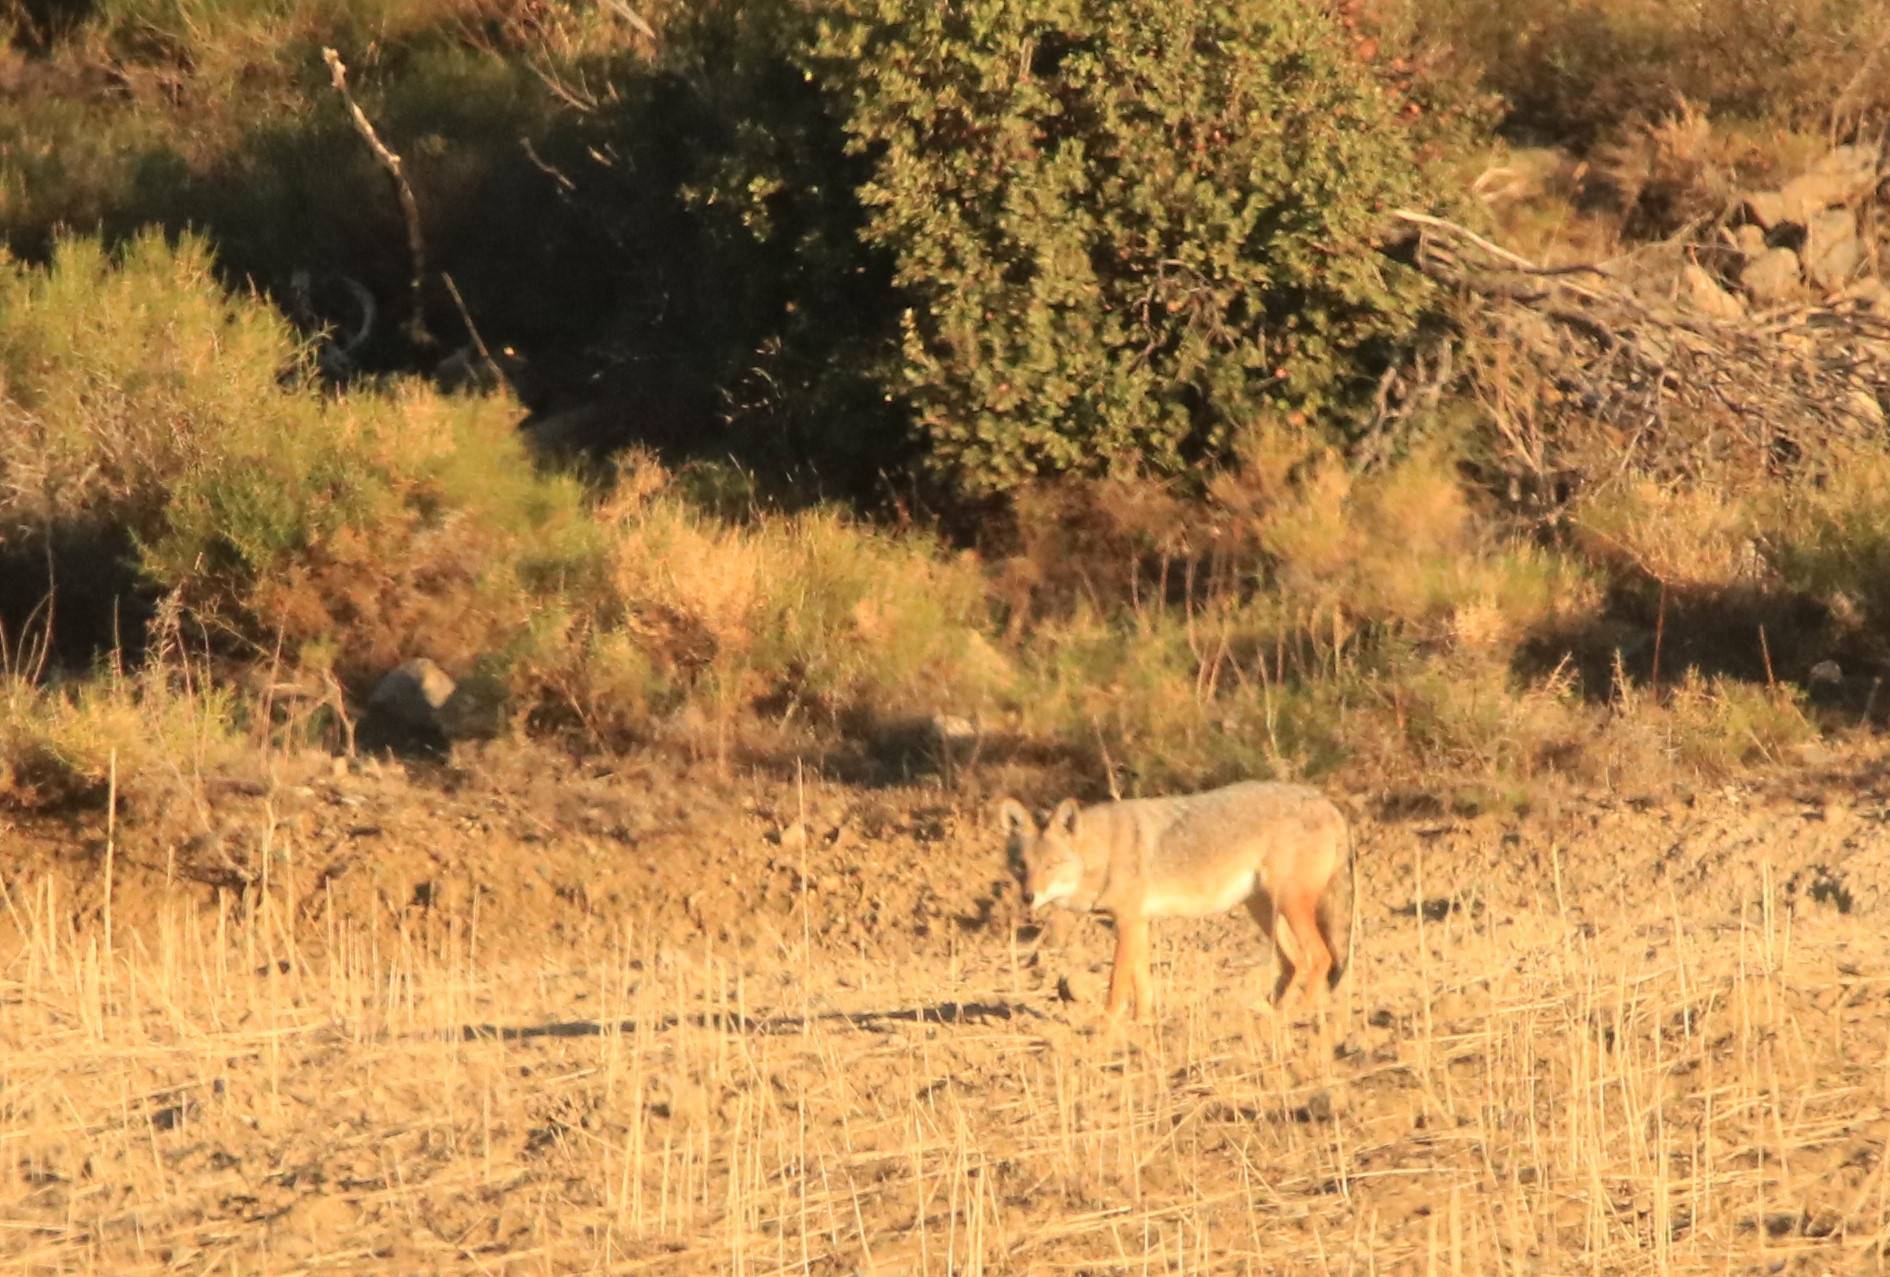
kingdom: Animalia
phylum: Chordata
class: Mammalia
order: Carnivora
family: Canidae
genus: Canis
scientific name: Canis lupaster
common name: African golden wolf
